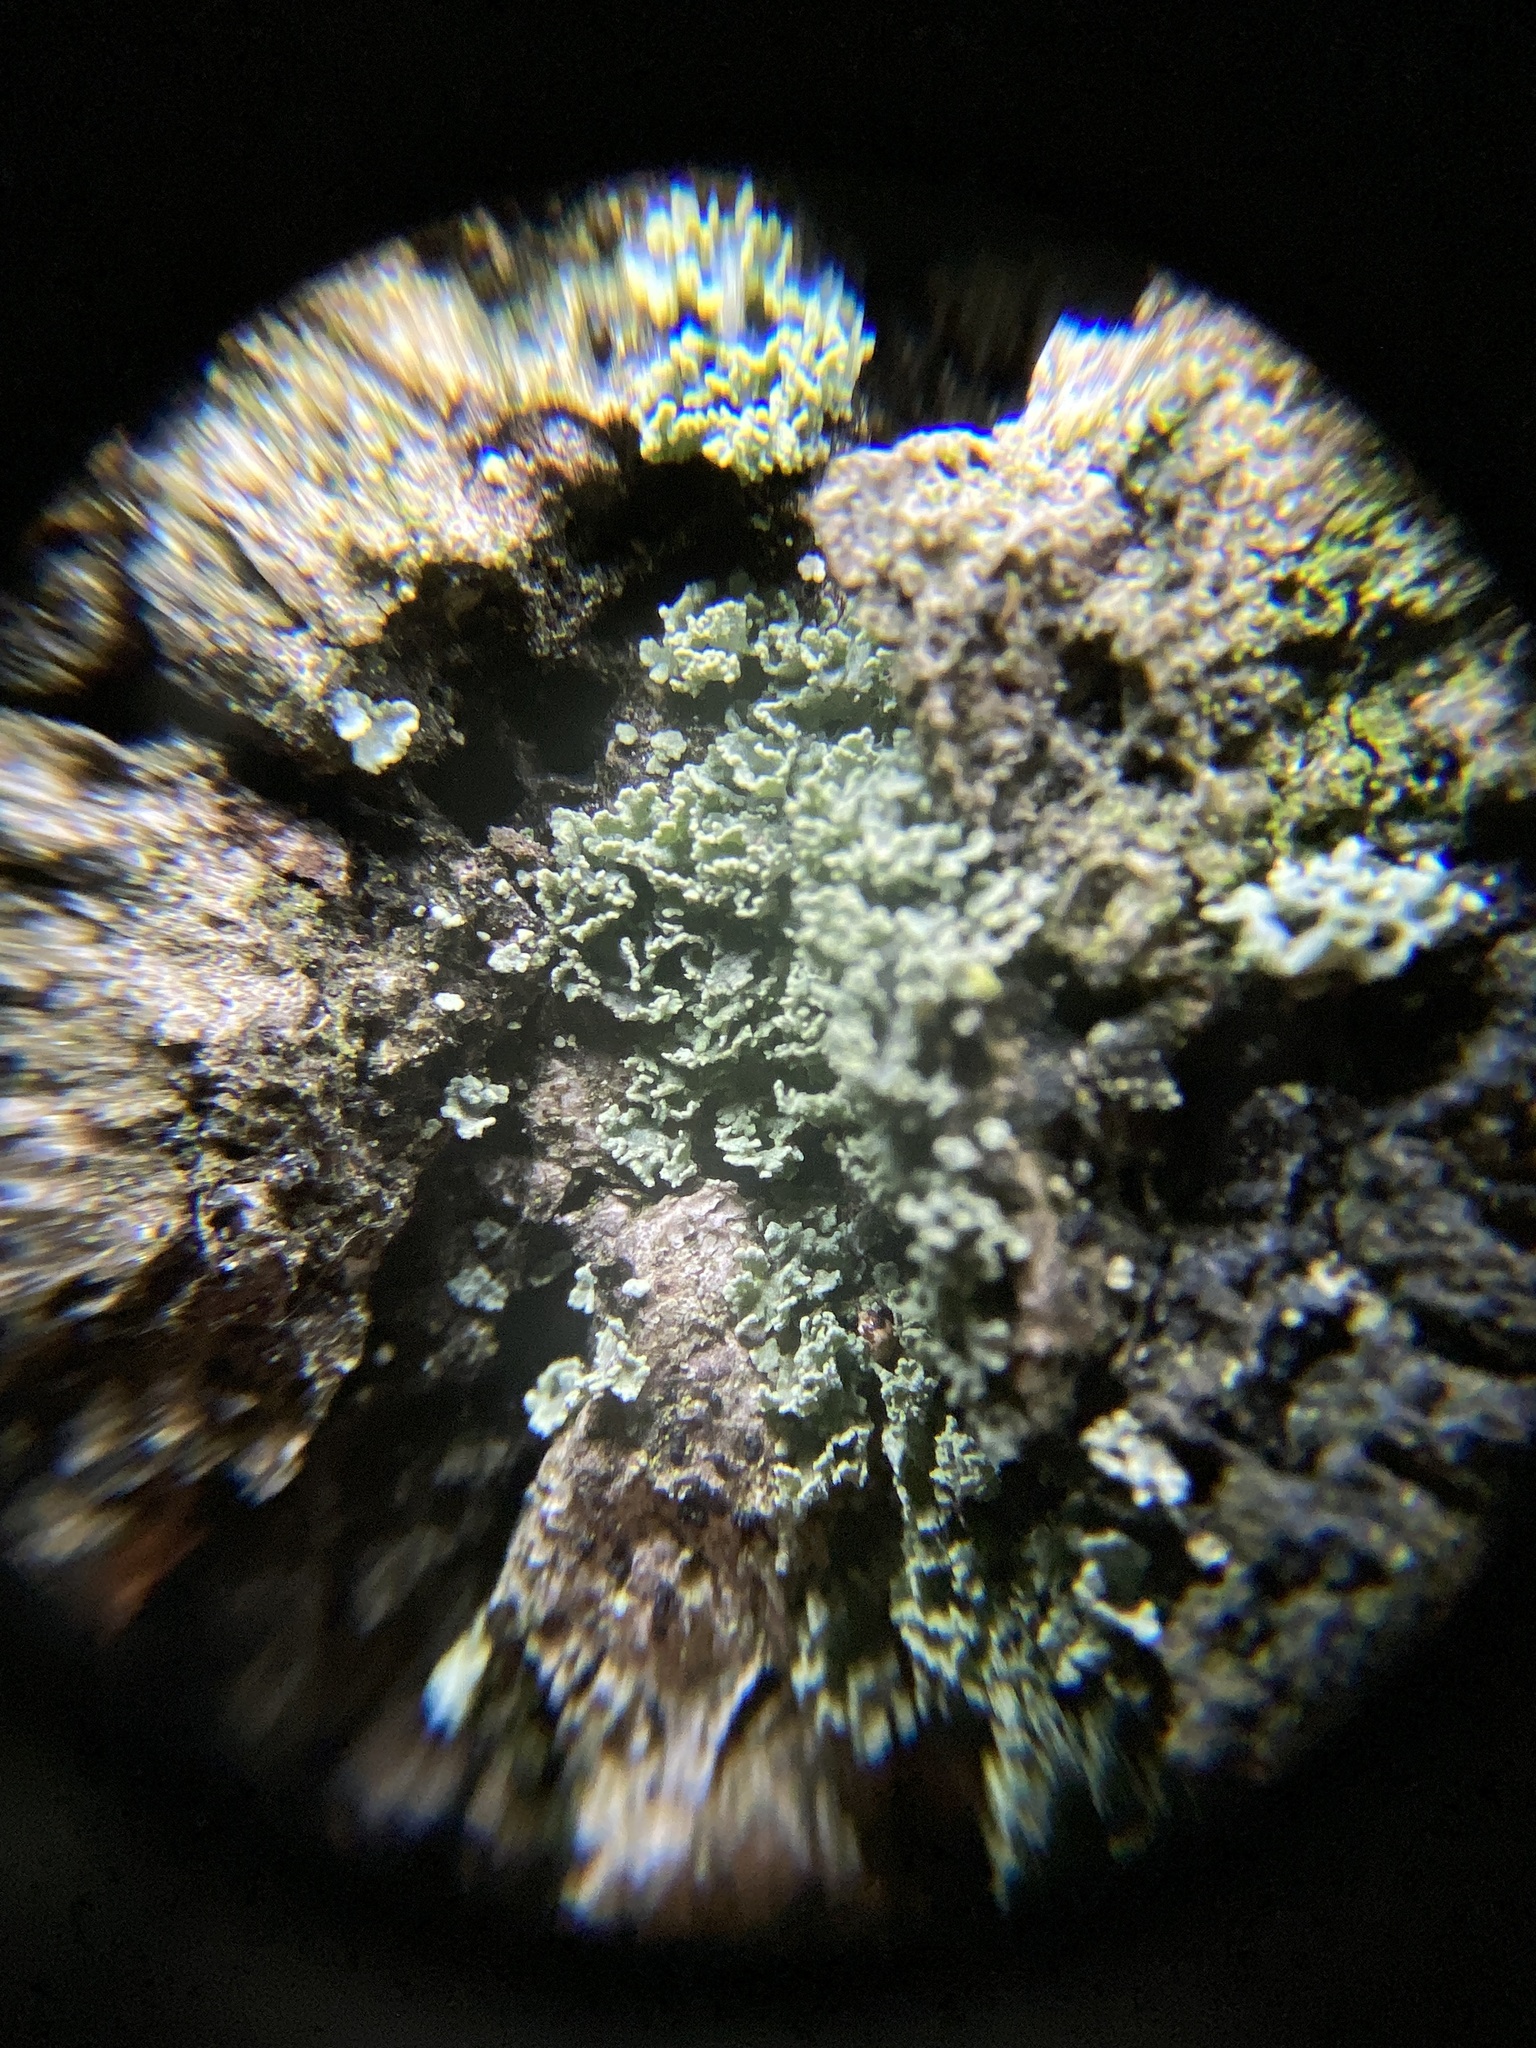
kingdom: Fungi
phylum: Ascomycota
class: Lecanoromycetes
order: Lecanorales
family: Cladoniaceae
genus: Cladonia
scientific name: Cladonia squamosa
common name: Dragon horn
